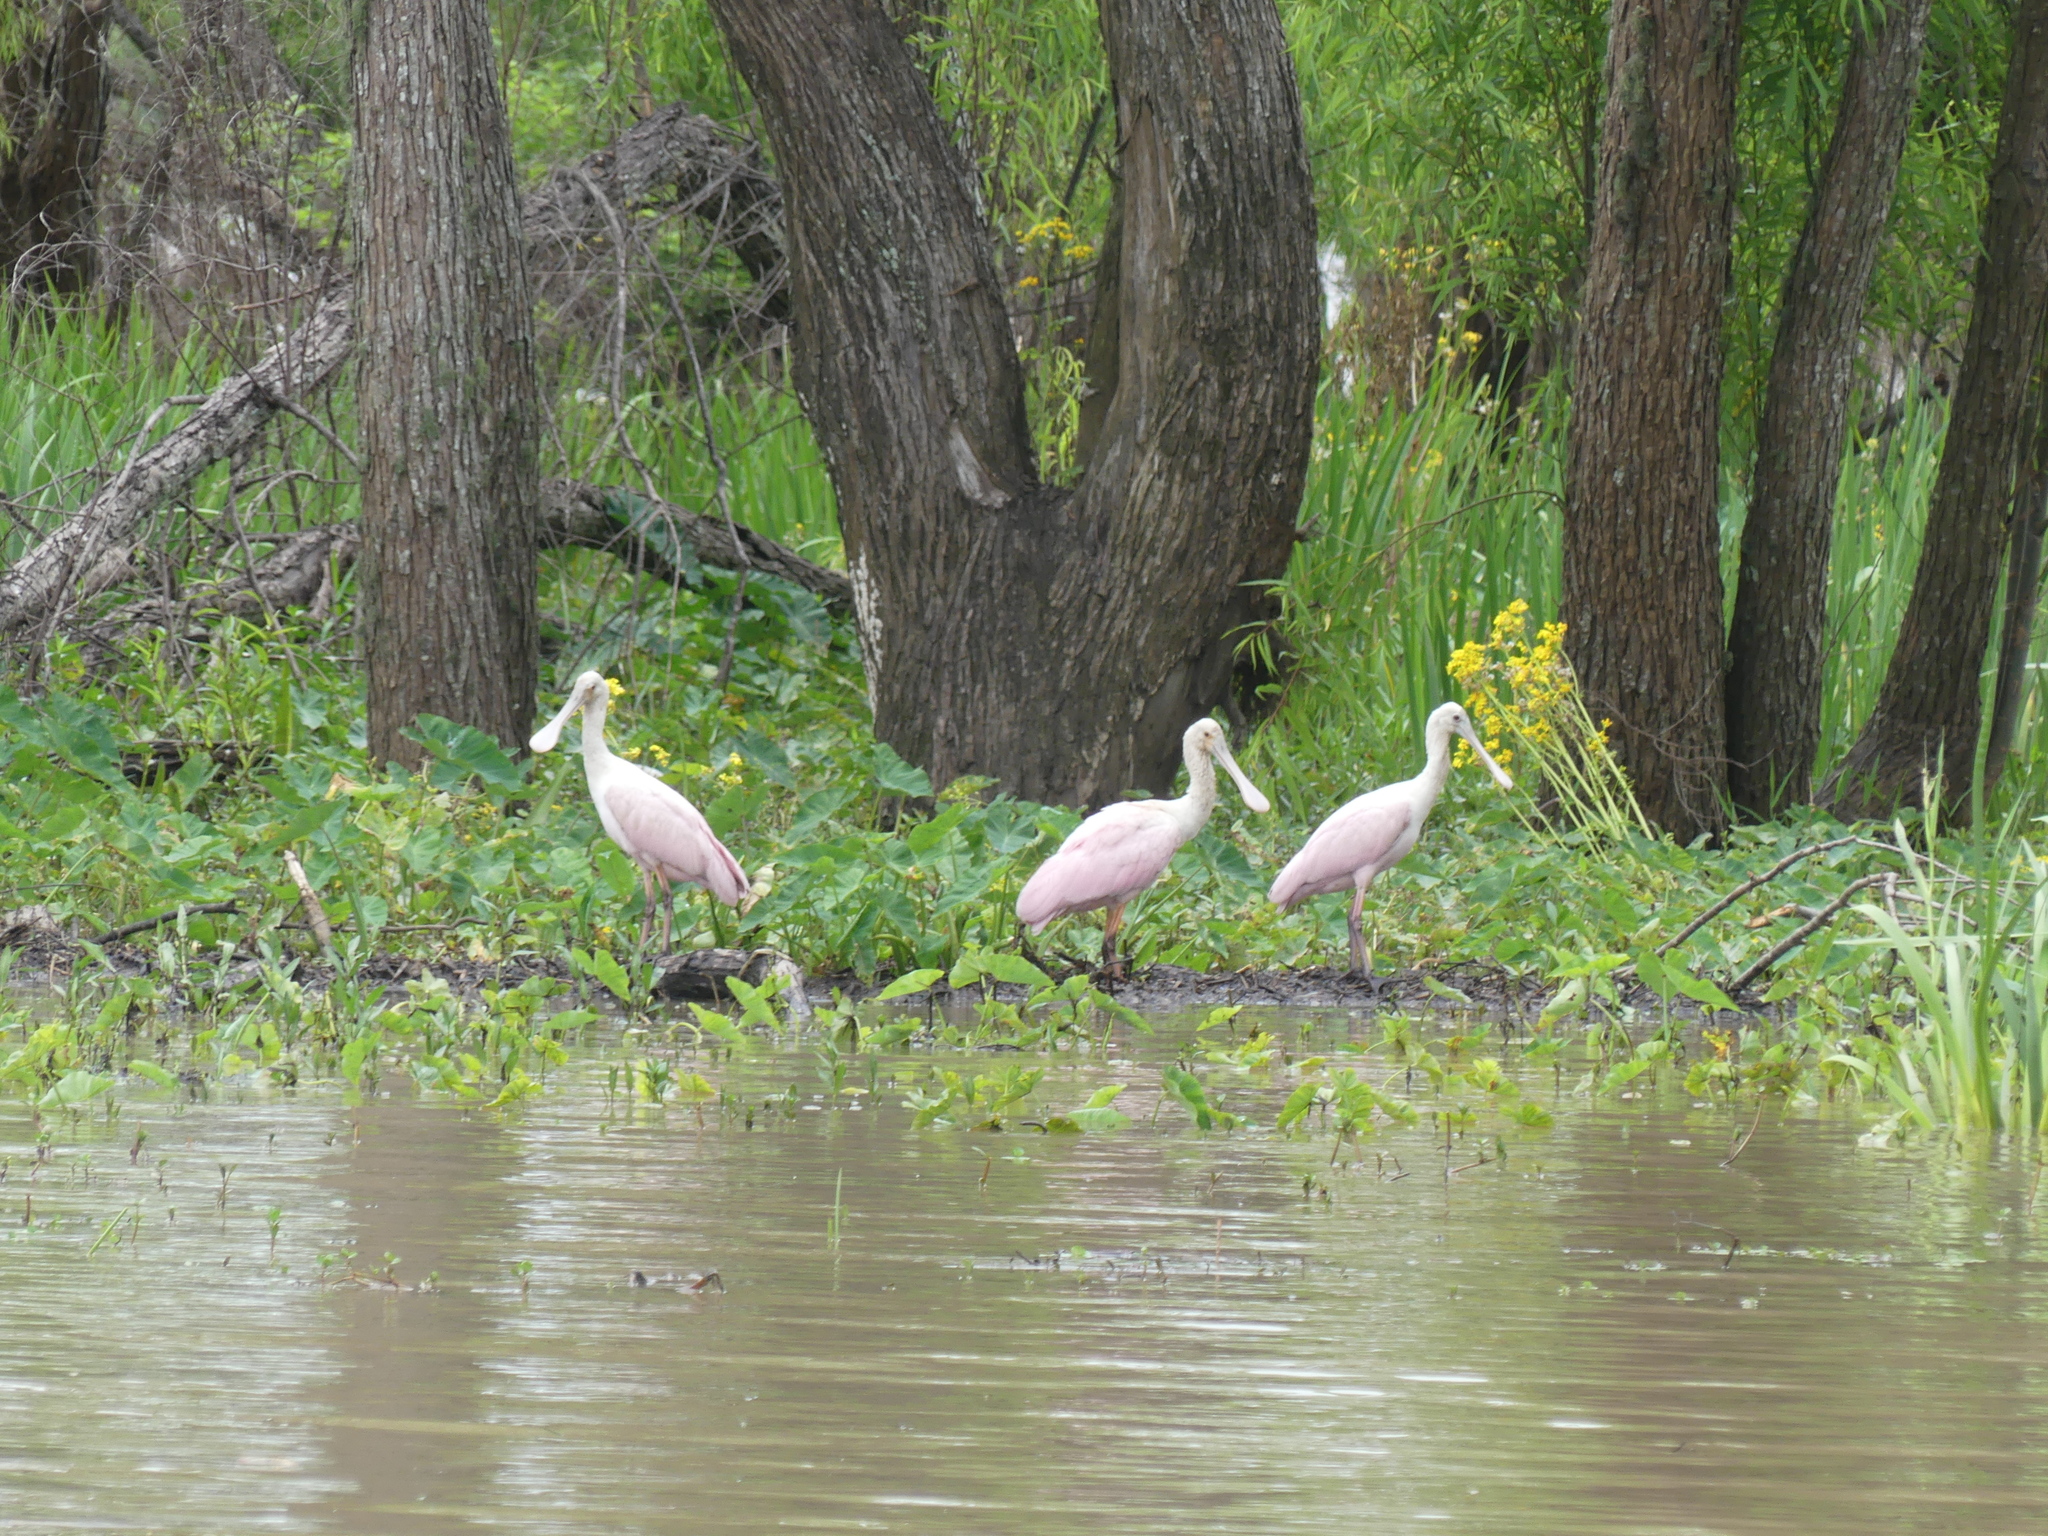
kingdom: Animalia
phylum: Chordata
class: Aves
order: Pelecaniformes
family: Threskiornithidae
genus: Platalea
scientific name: Platalea ajaja
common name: Roseate spoonbill
